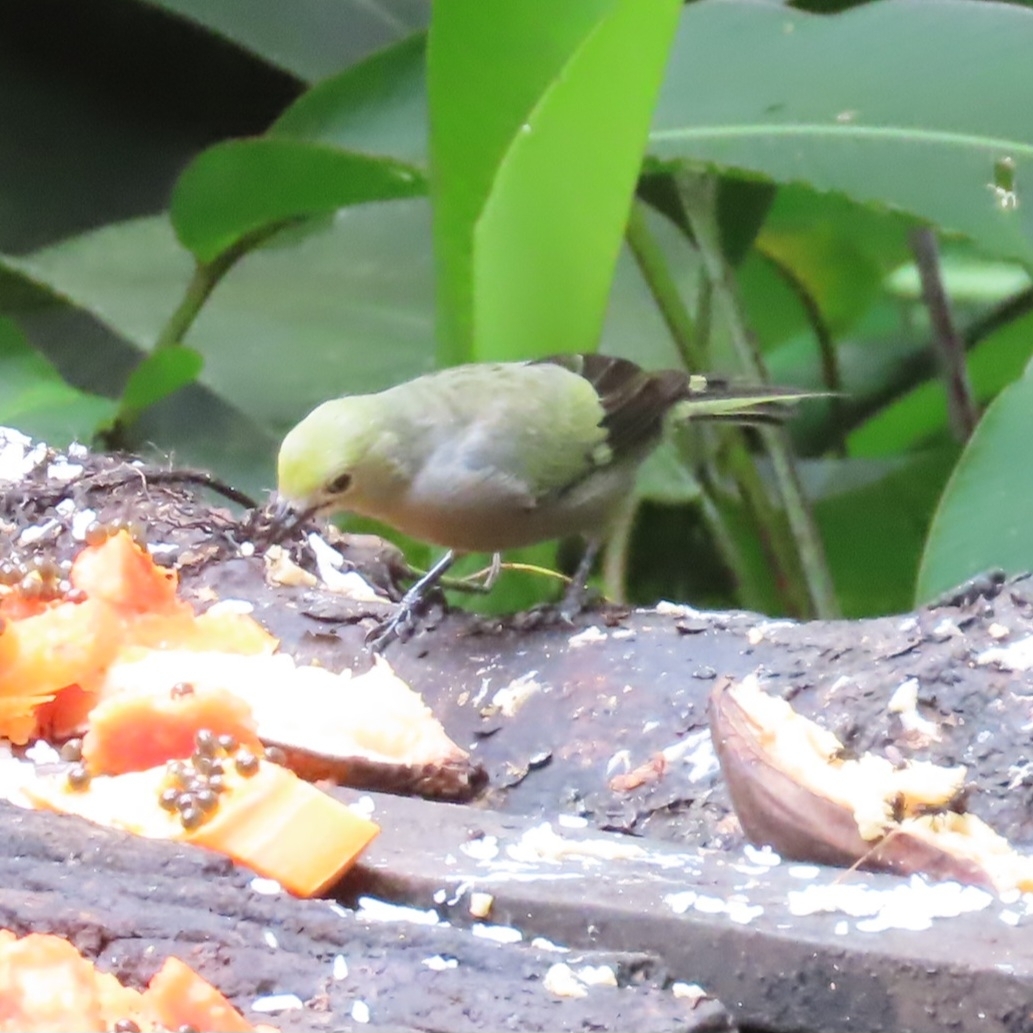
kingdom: Animalia
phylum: Chordata
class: Aves
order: Passeriformes
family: Thraupidae
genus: Thraupis
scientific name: Thraupis palmarum
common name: Palm tanager
